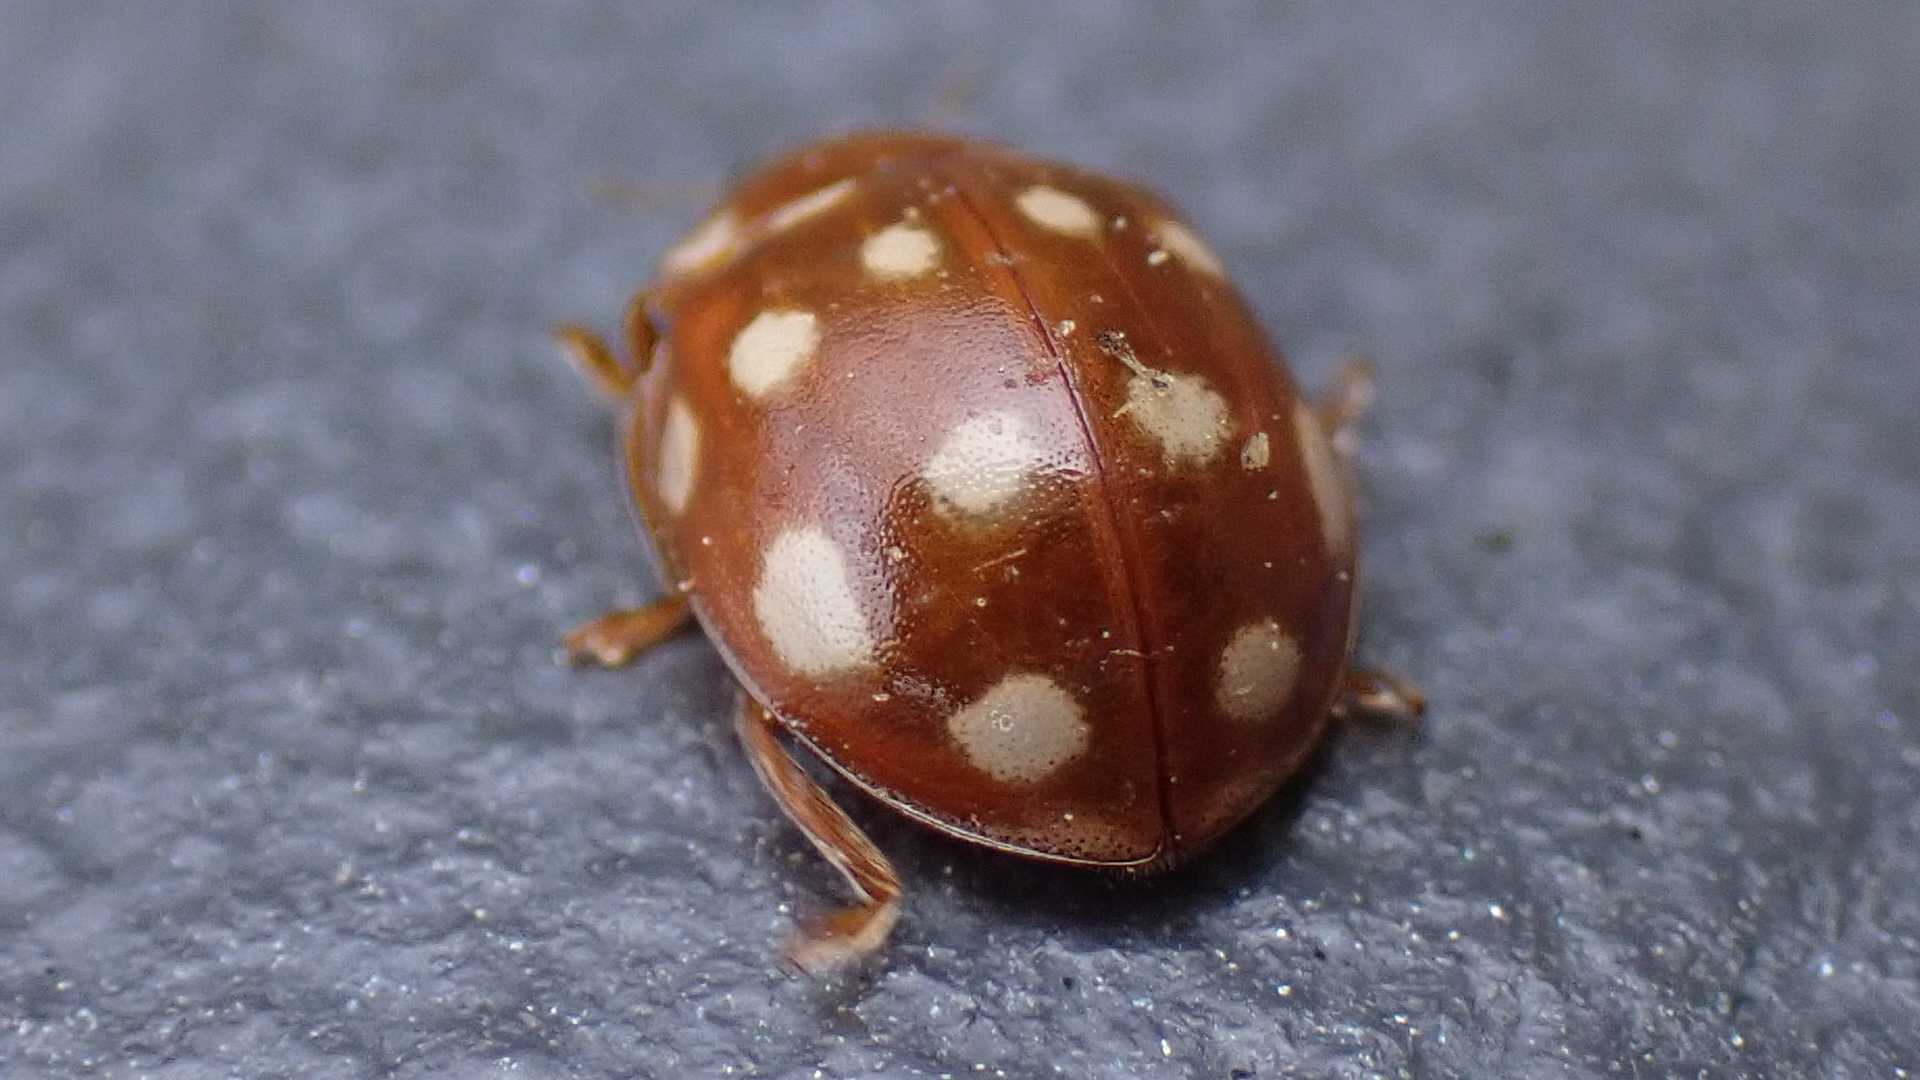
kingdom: Animalia
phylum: Arthropoda
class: Insecta
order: Coleoptera
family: Coccinellidae
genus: Calvia
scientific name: Calvia quatuordecimguttata
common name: Cream-spot ladybird
